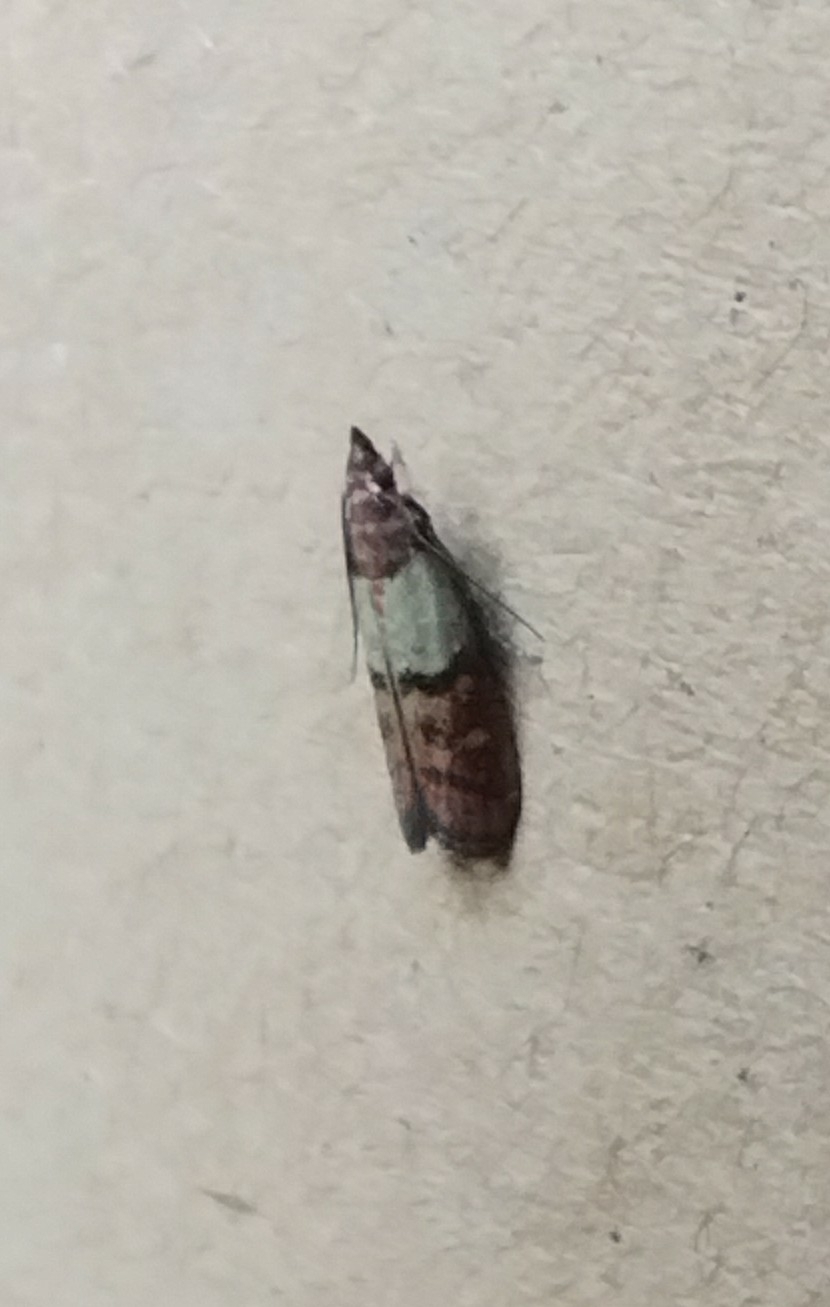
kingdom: Animalia
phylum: Arthropoda
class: Insecta
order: Lepidoptera
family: Pyralidae
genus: Plodia
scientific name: Plodia interpunctella
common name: Indian meal moth
